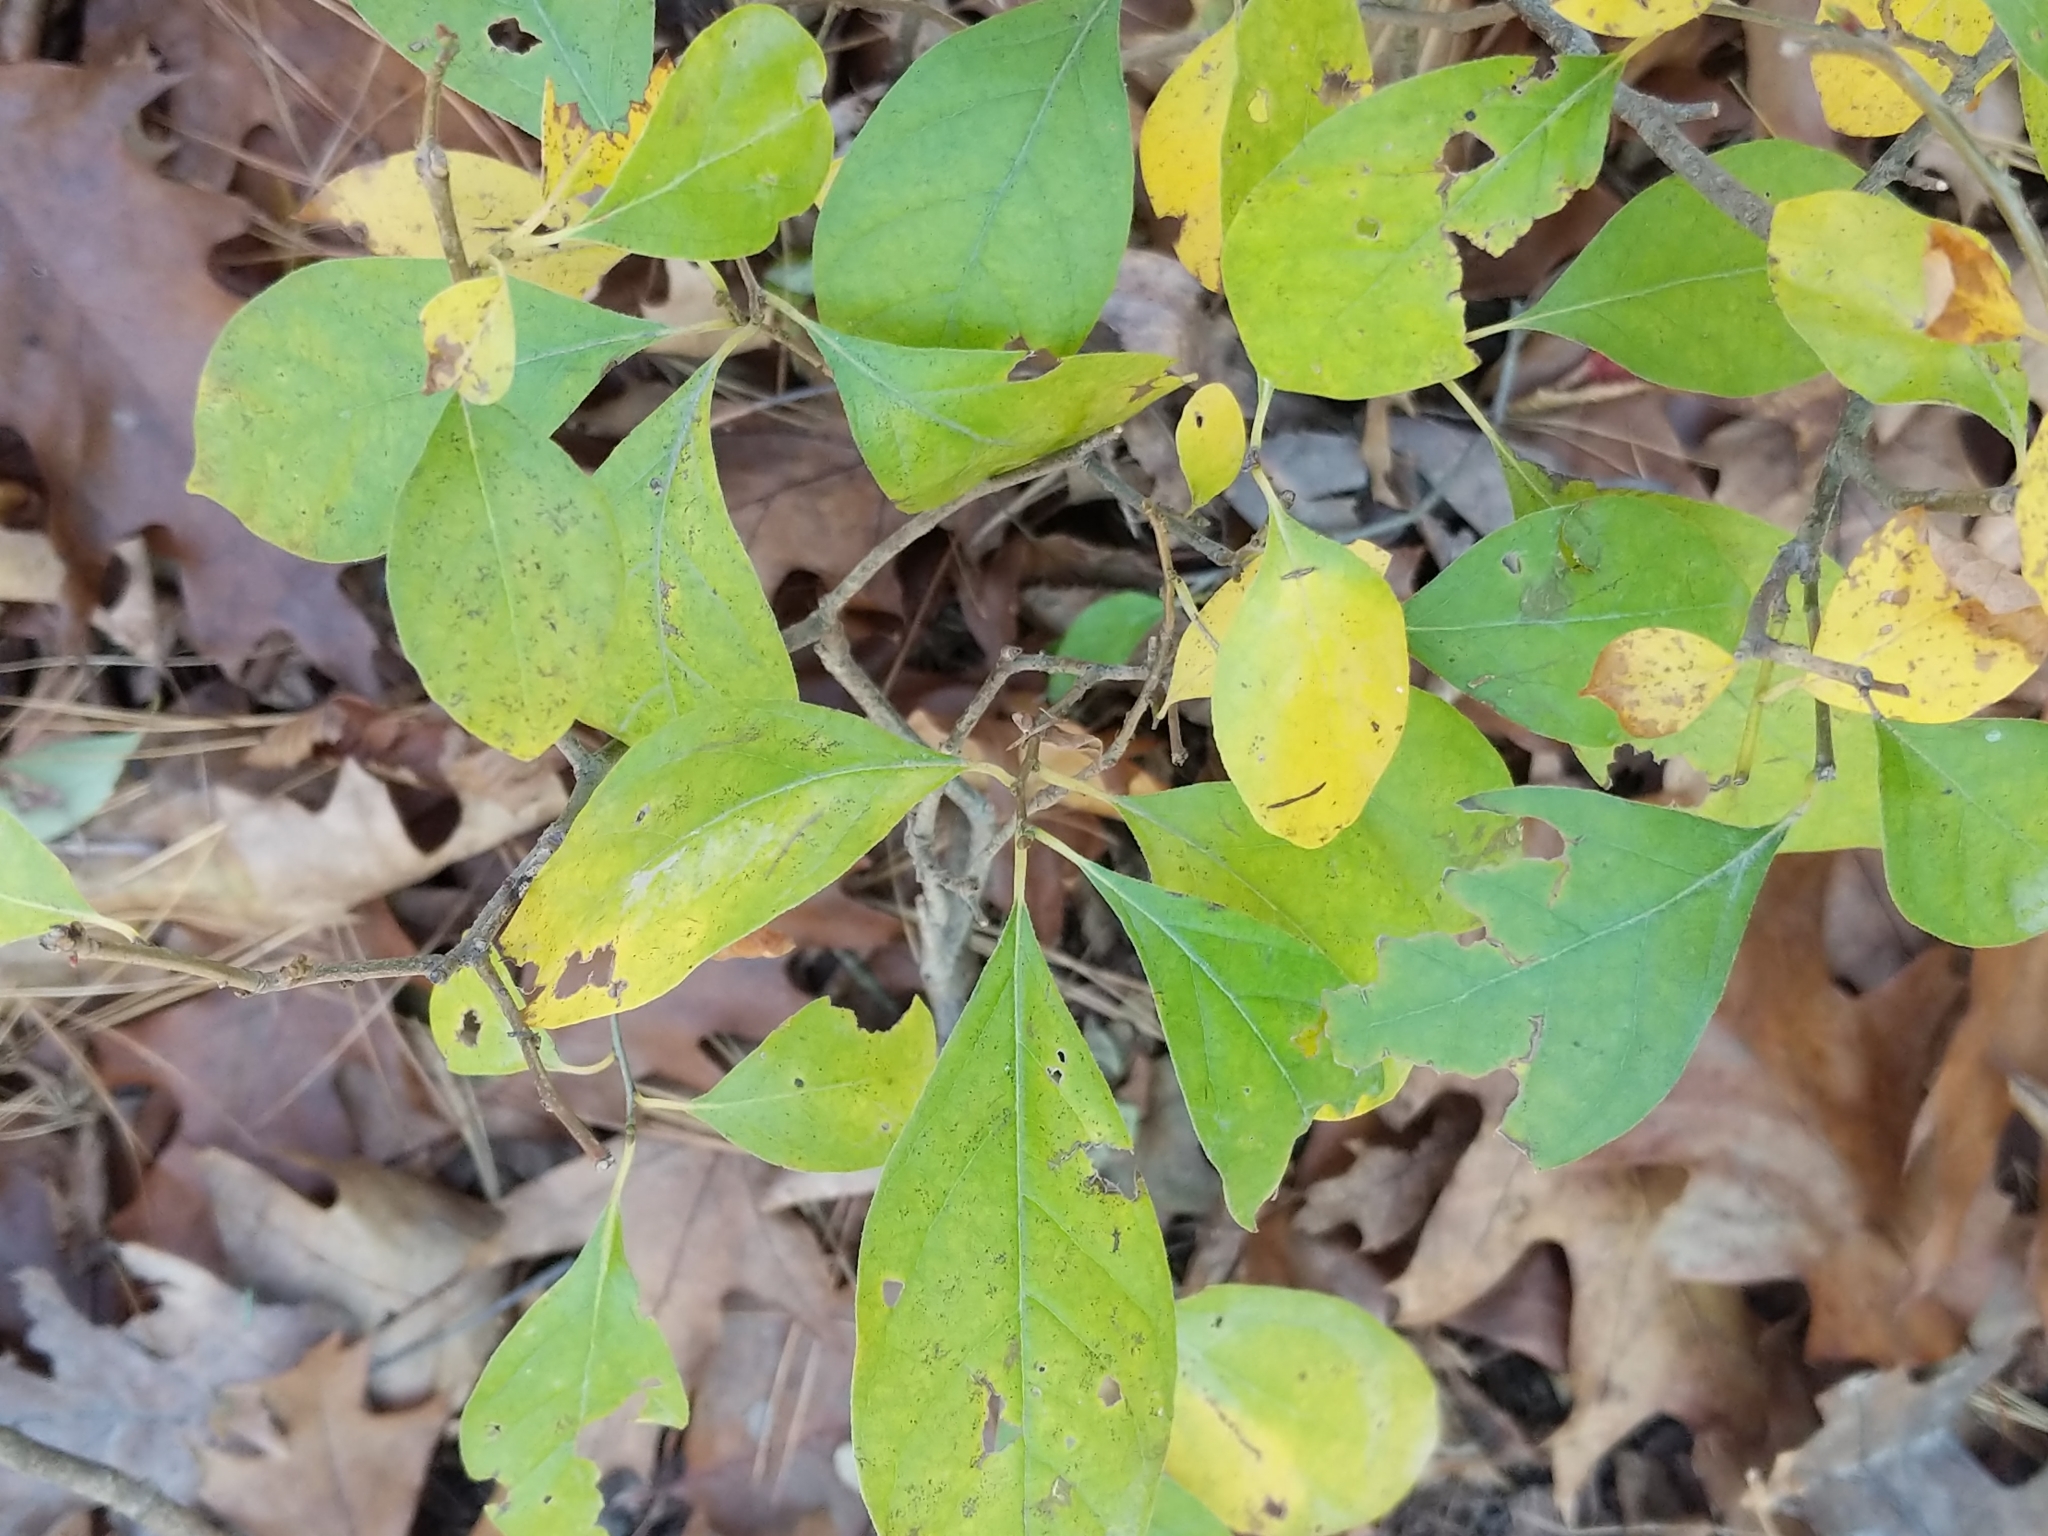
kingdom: Plantae
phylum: Tracheophyta
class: Magnoliopsida
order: Laurales
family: Lauraceae
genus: Lindera
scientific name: Lindera benzoin
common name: Spicebush
